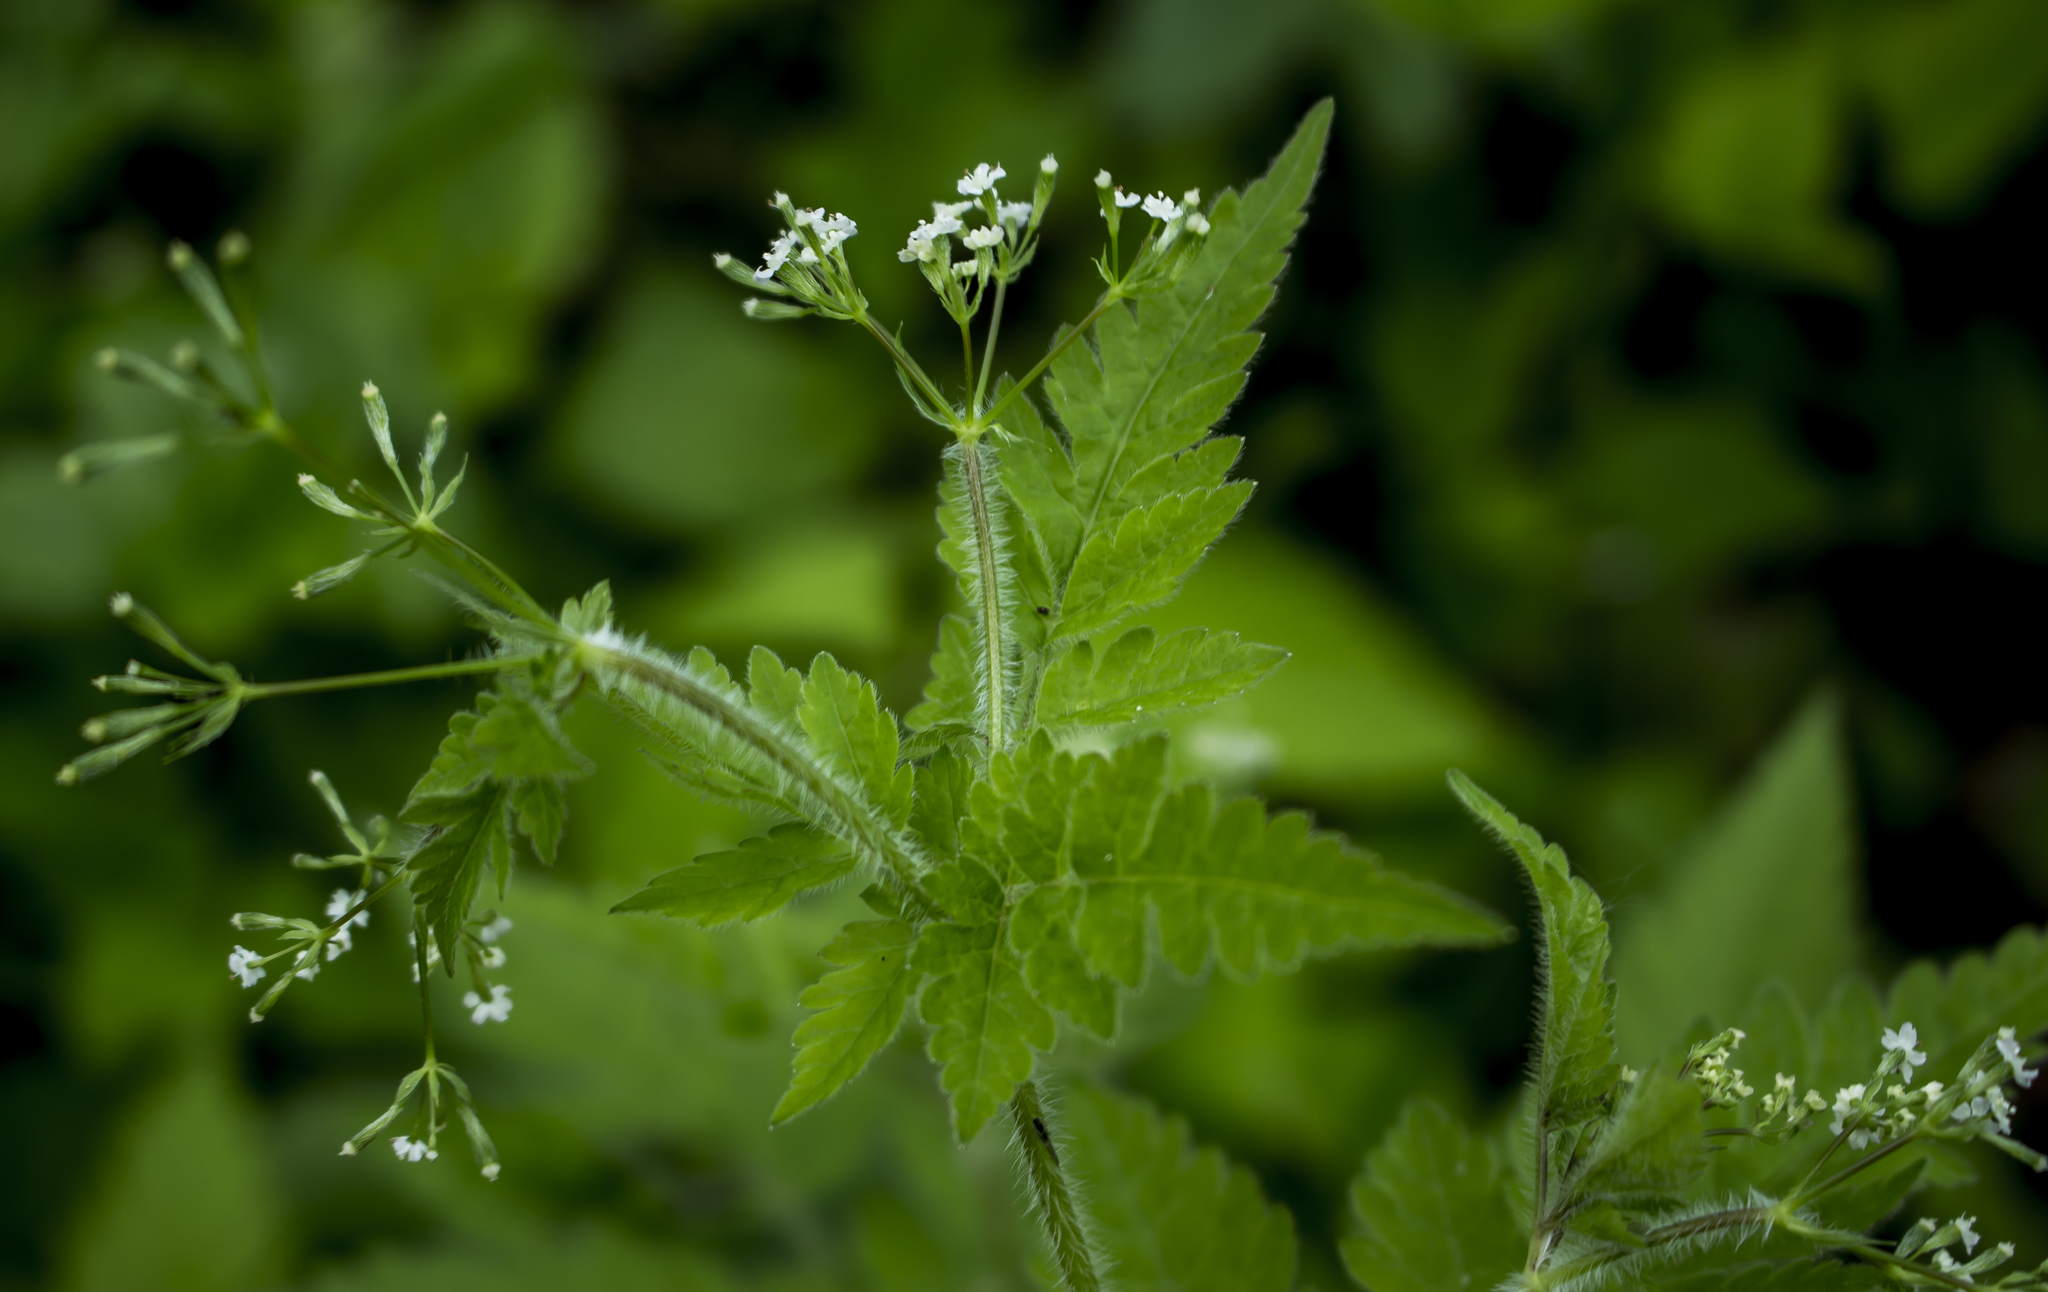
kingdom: Plantae
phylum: Tracheophyta
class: Magnoliopsida
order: Apiales
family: Apiaceae
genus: Osmorhiza
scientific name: Osmorhiza claytonii
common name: Hairy sweet cicely
